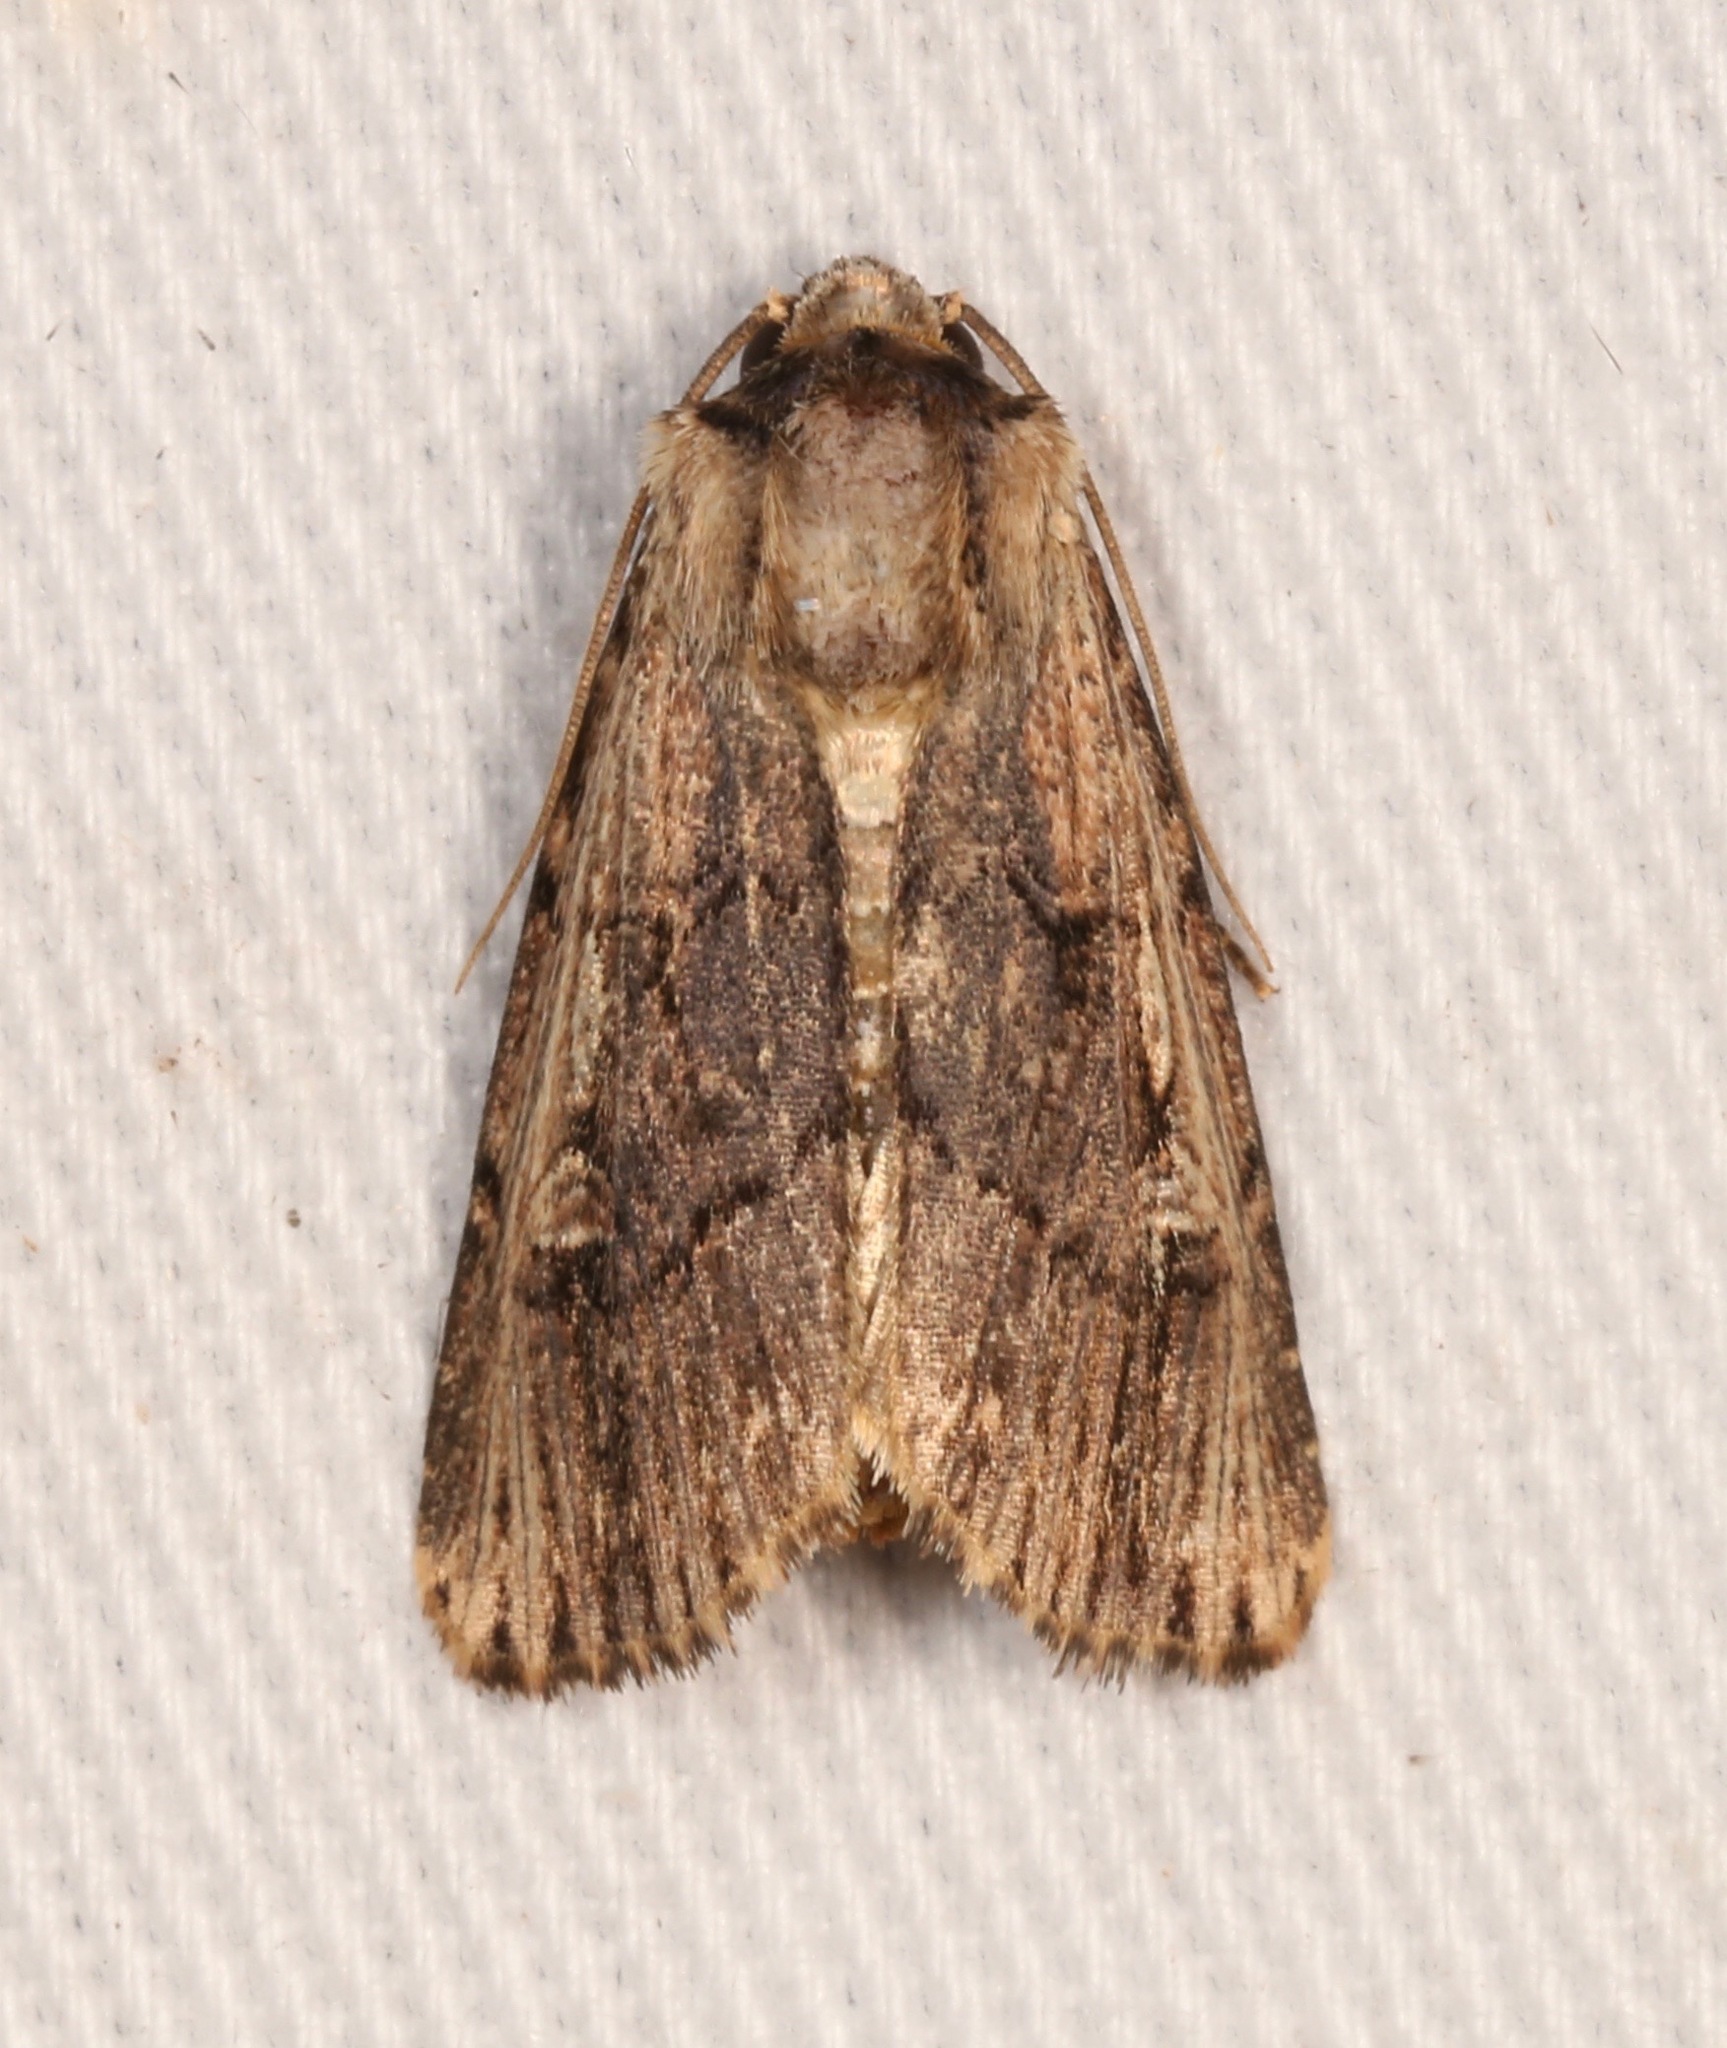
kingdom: Animalia
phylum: Arthropoda
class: Insecta
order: Lepidoptera
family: Noctuidae
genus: Dichagyris
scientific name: Dichagyris cataclivis
